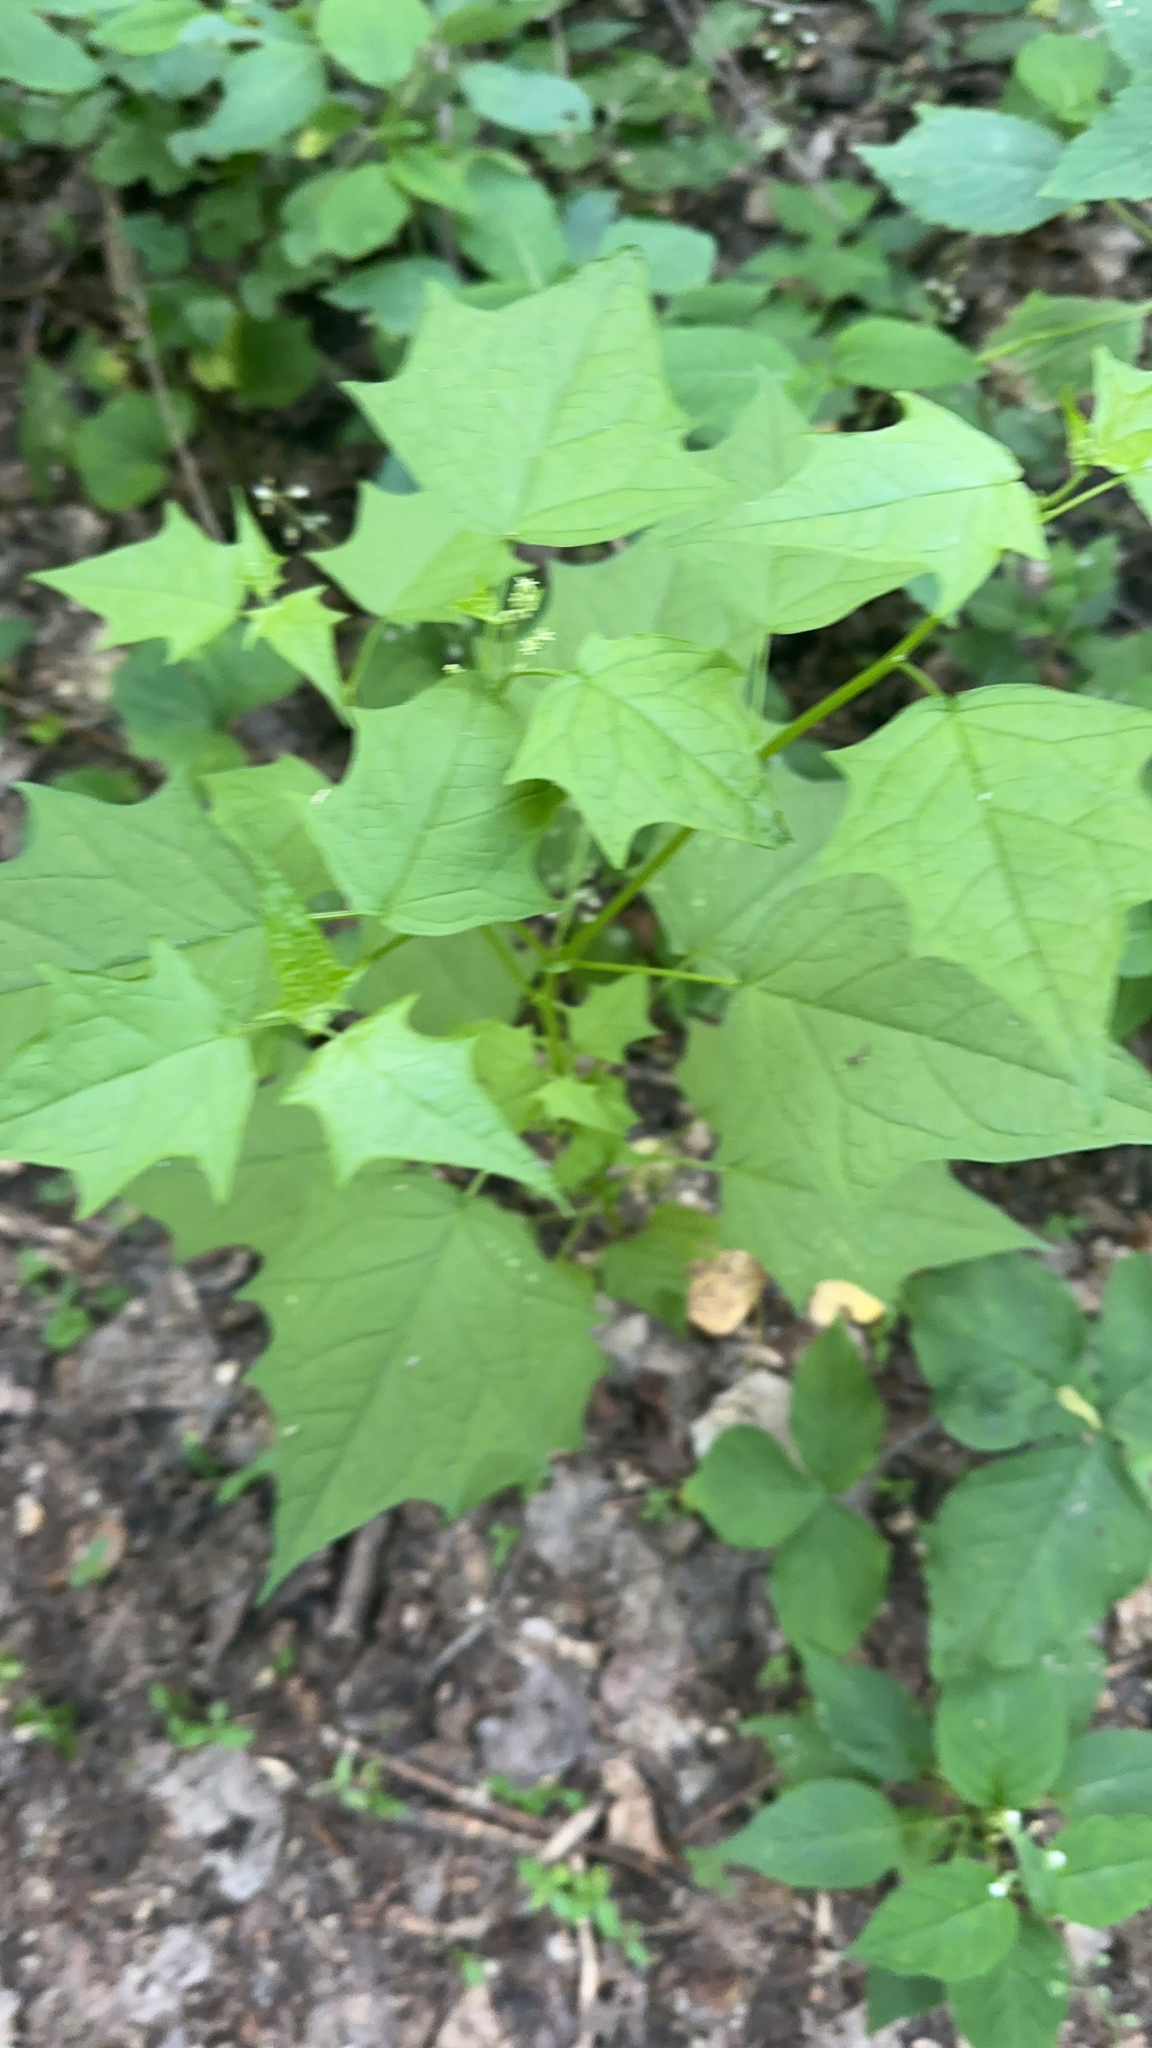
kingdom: Plantae
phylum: Tracheophyta
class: Magnoliopsida
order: Caryophyllales
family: Amaranthaceae
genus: Chenopodiastrum
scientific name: Chenopodiastrum hybridum
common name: Mapleleaf goosefoot
